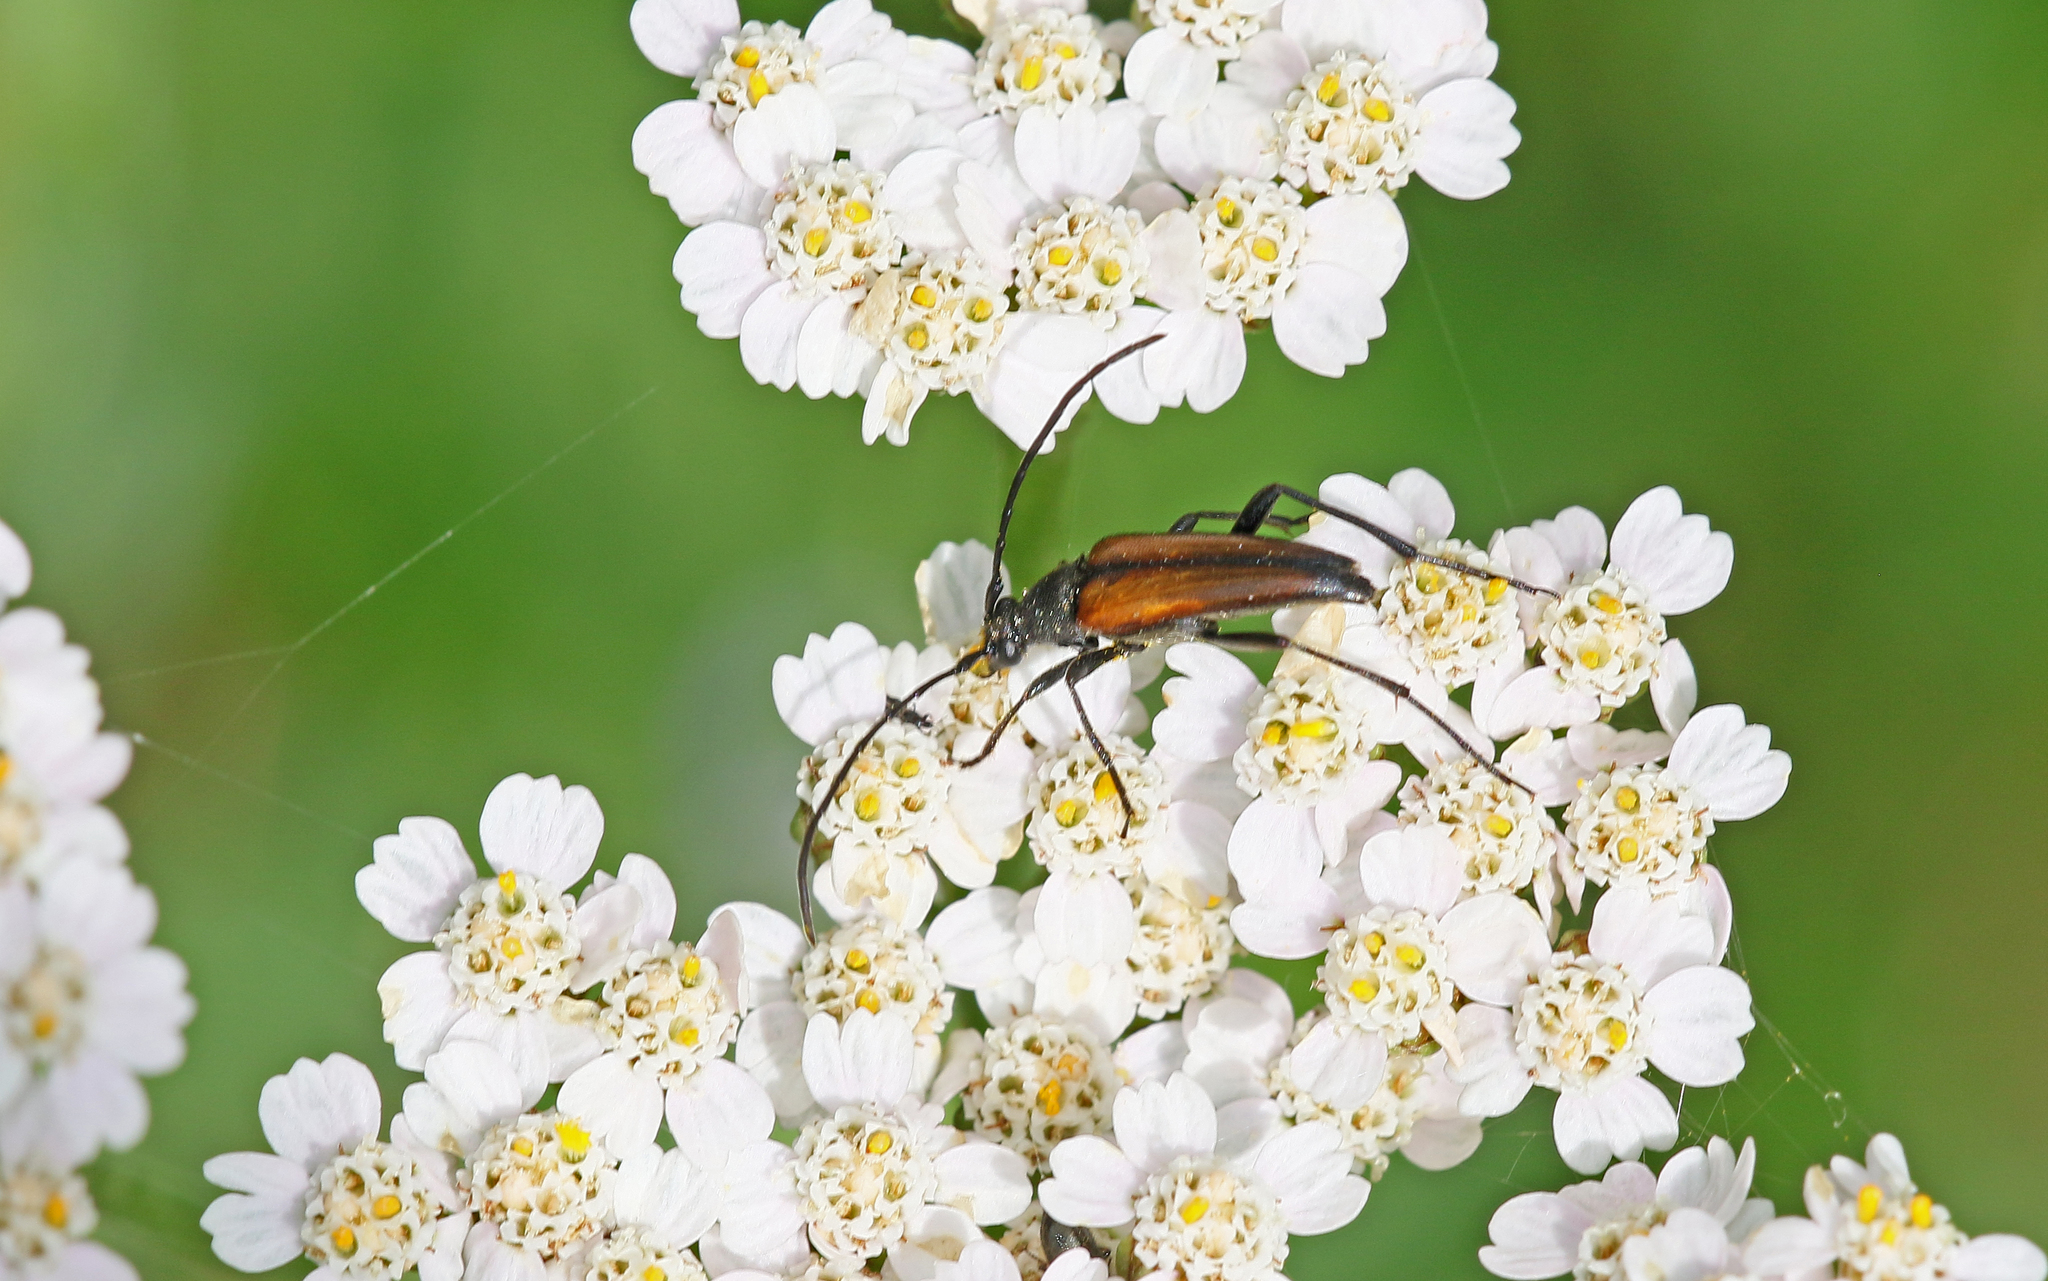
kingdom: Animalia
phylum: Arthropoda
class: Insecta
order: Coleoptera
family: Cerambycidae
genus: Stenurella
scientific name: Stenurella melanura
